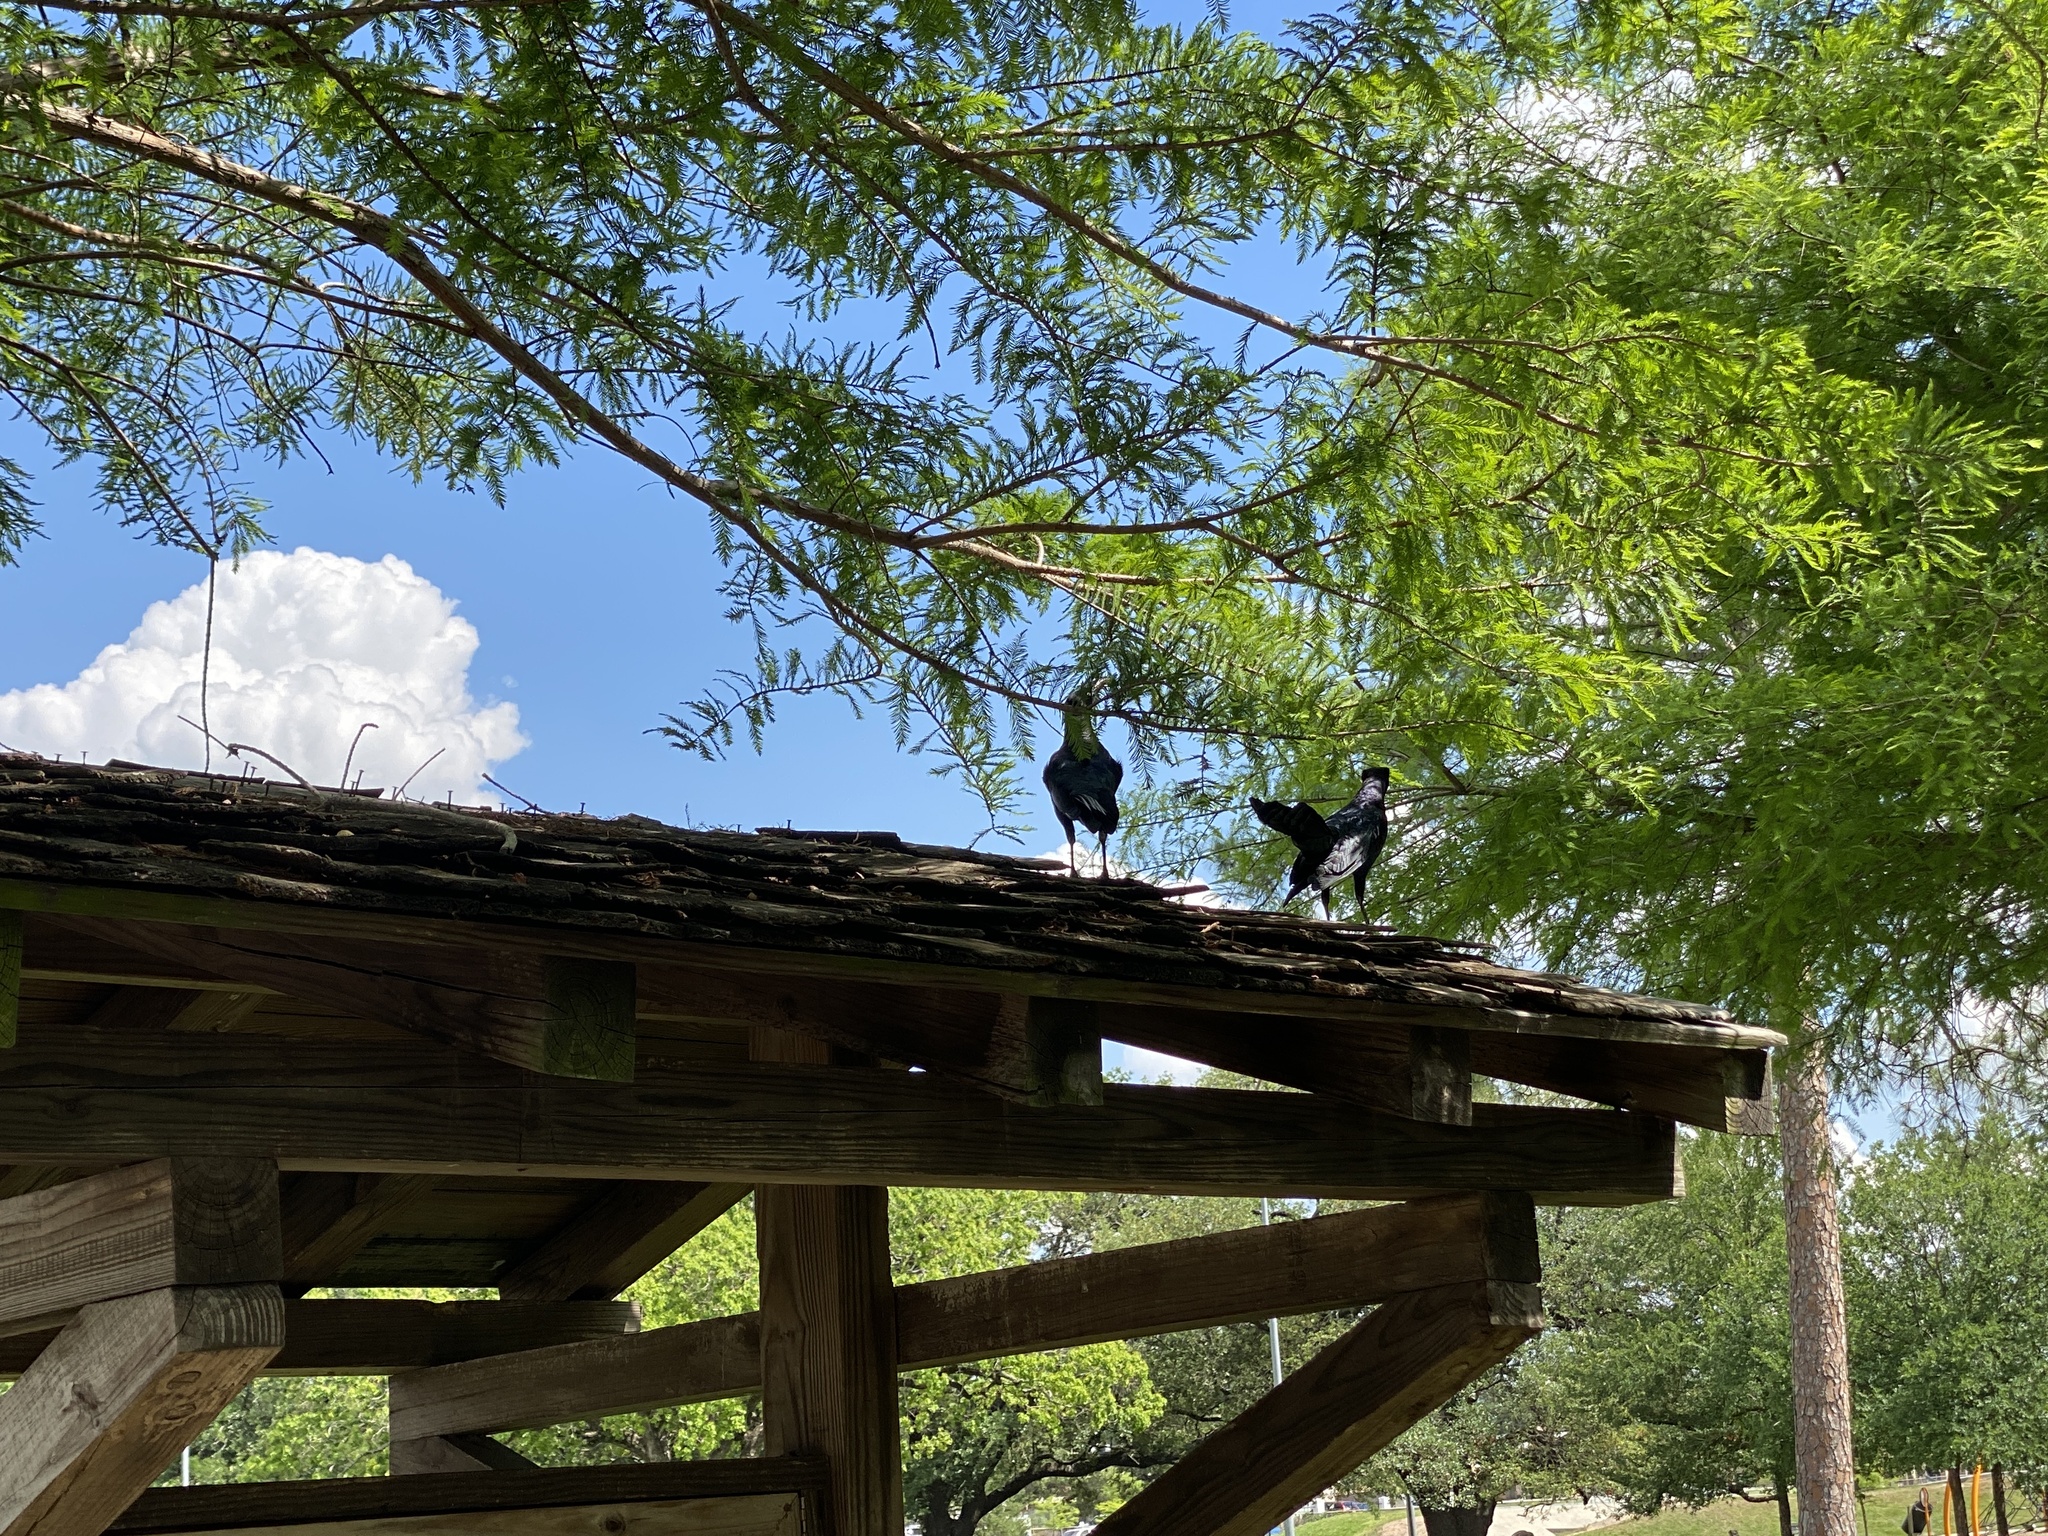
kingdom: Animalia
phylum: Chordata
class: Aves
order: Passeriformes
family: Icteridae
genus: Quiscalus
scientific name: Quiscalus mexicanus
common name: Great-tailed grackle
